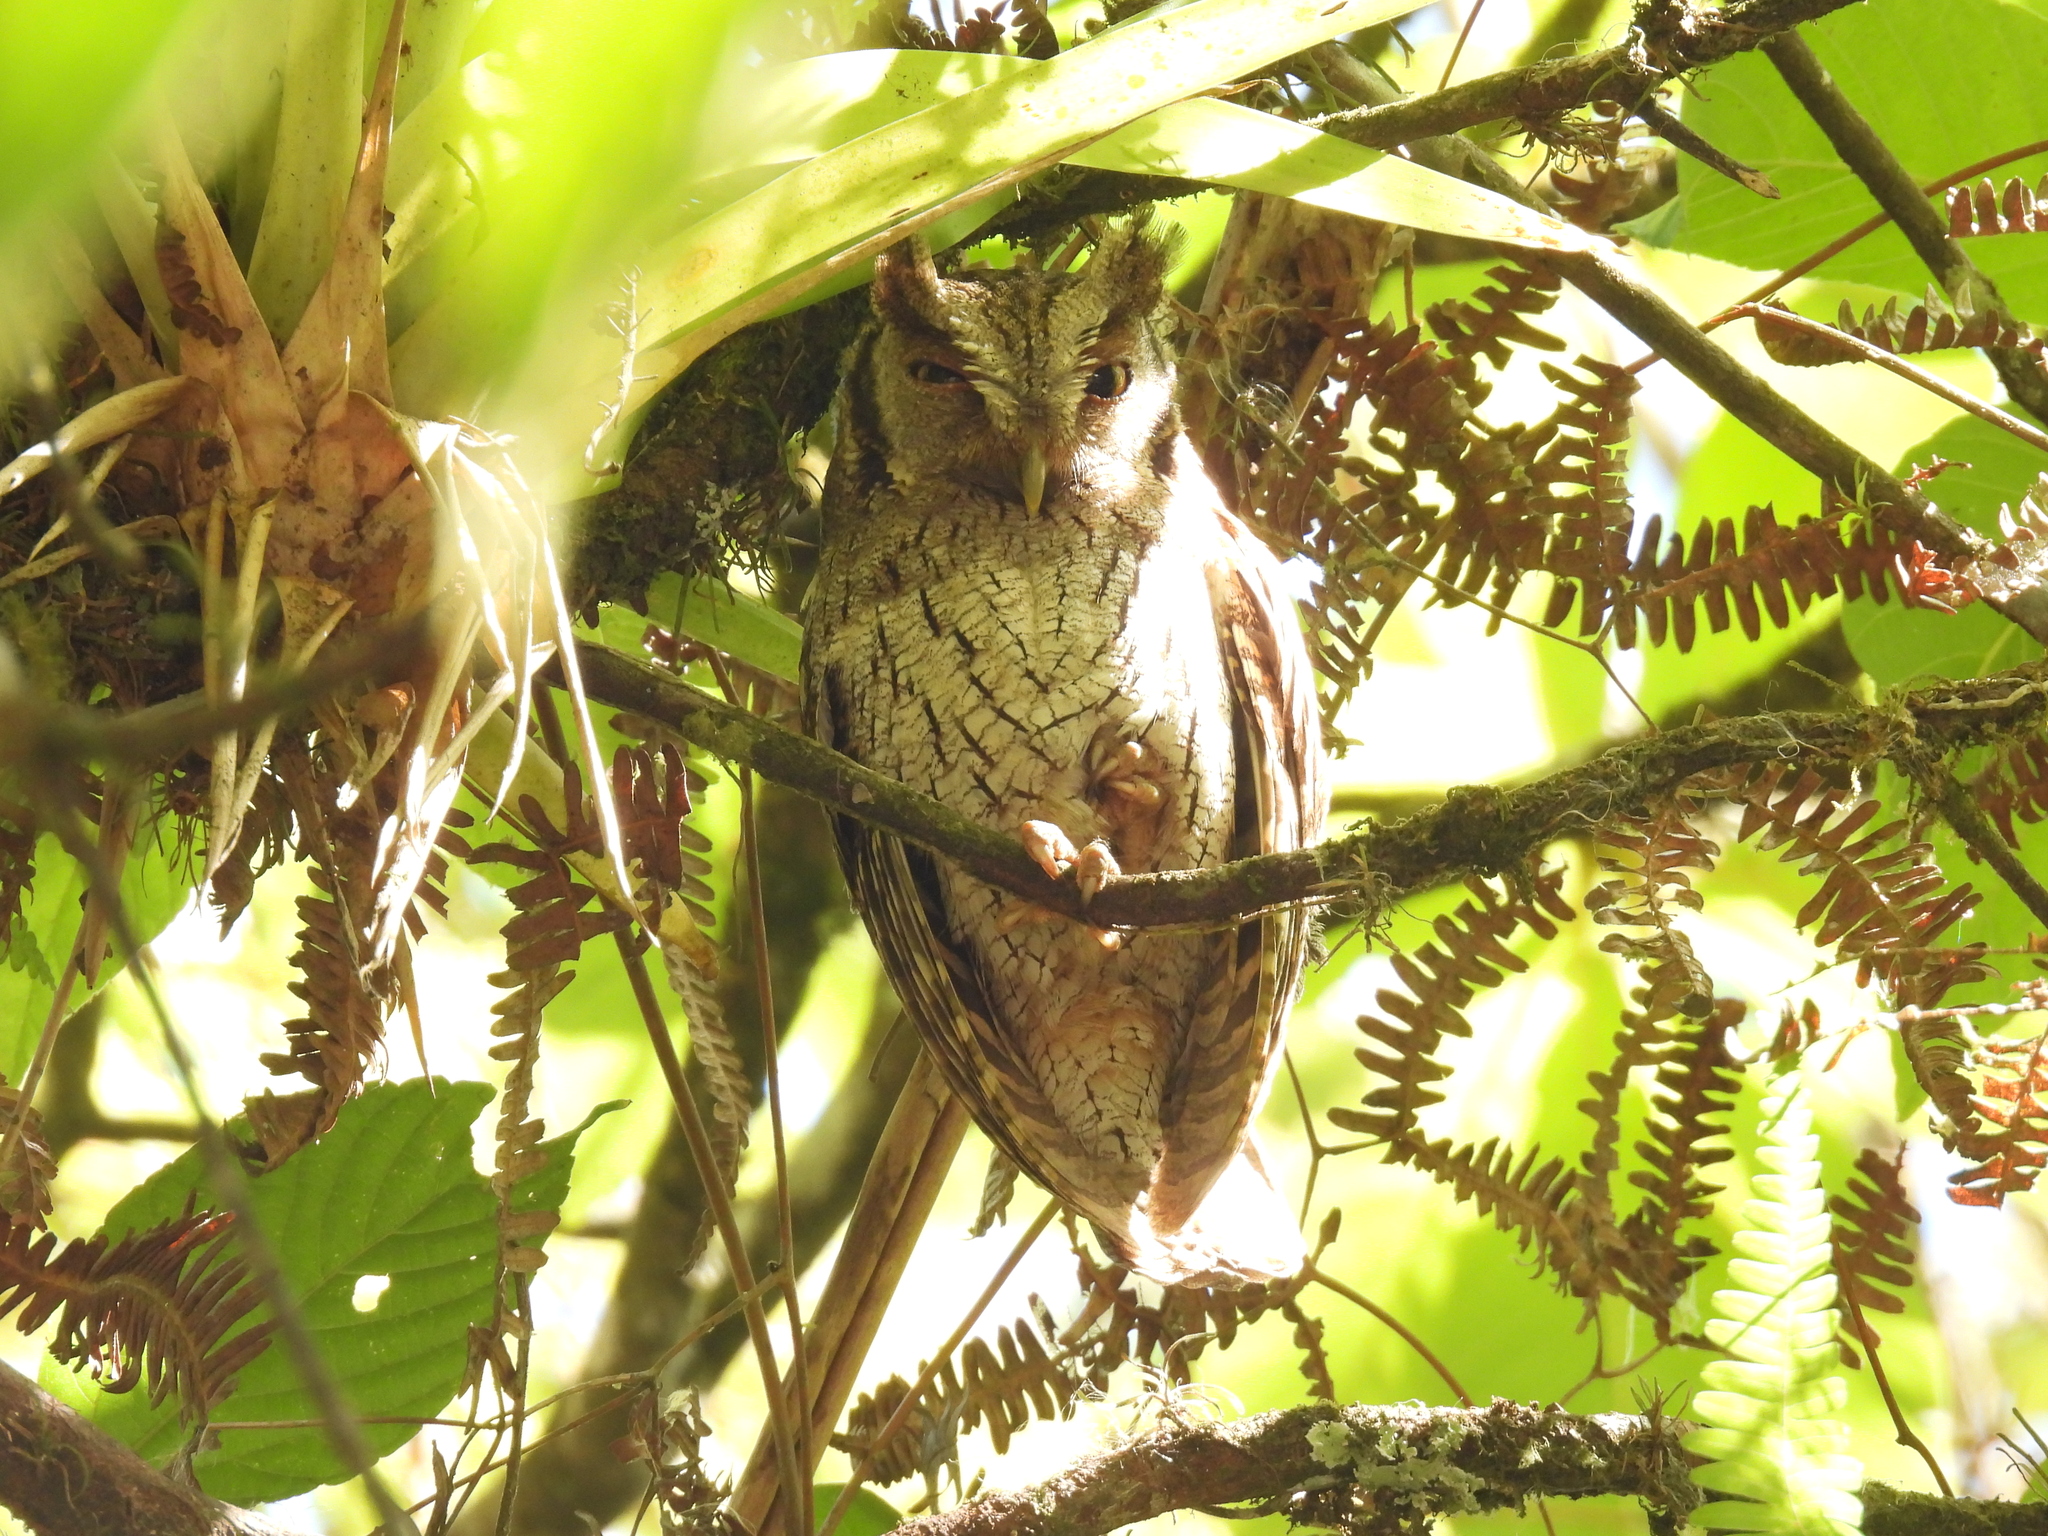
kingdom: Animalia
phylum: Chordata
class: Aves
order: Strigiformes
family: Strigidae
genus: Megascops
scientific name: Megascops choliba
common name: Tropical screech-owl
